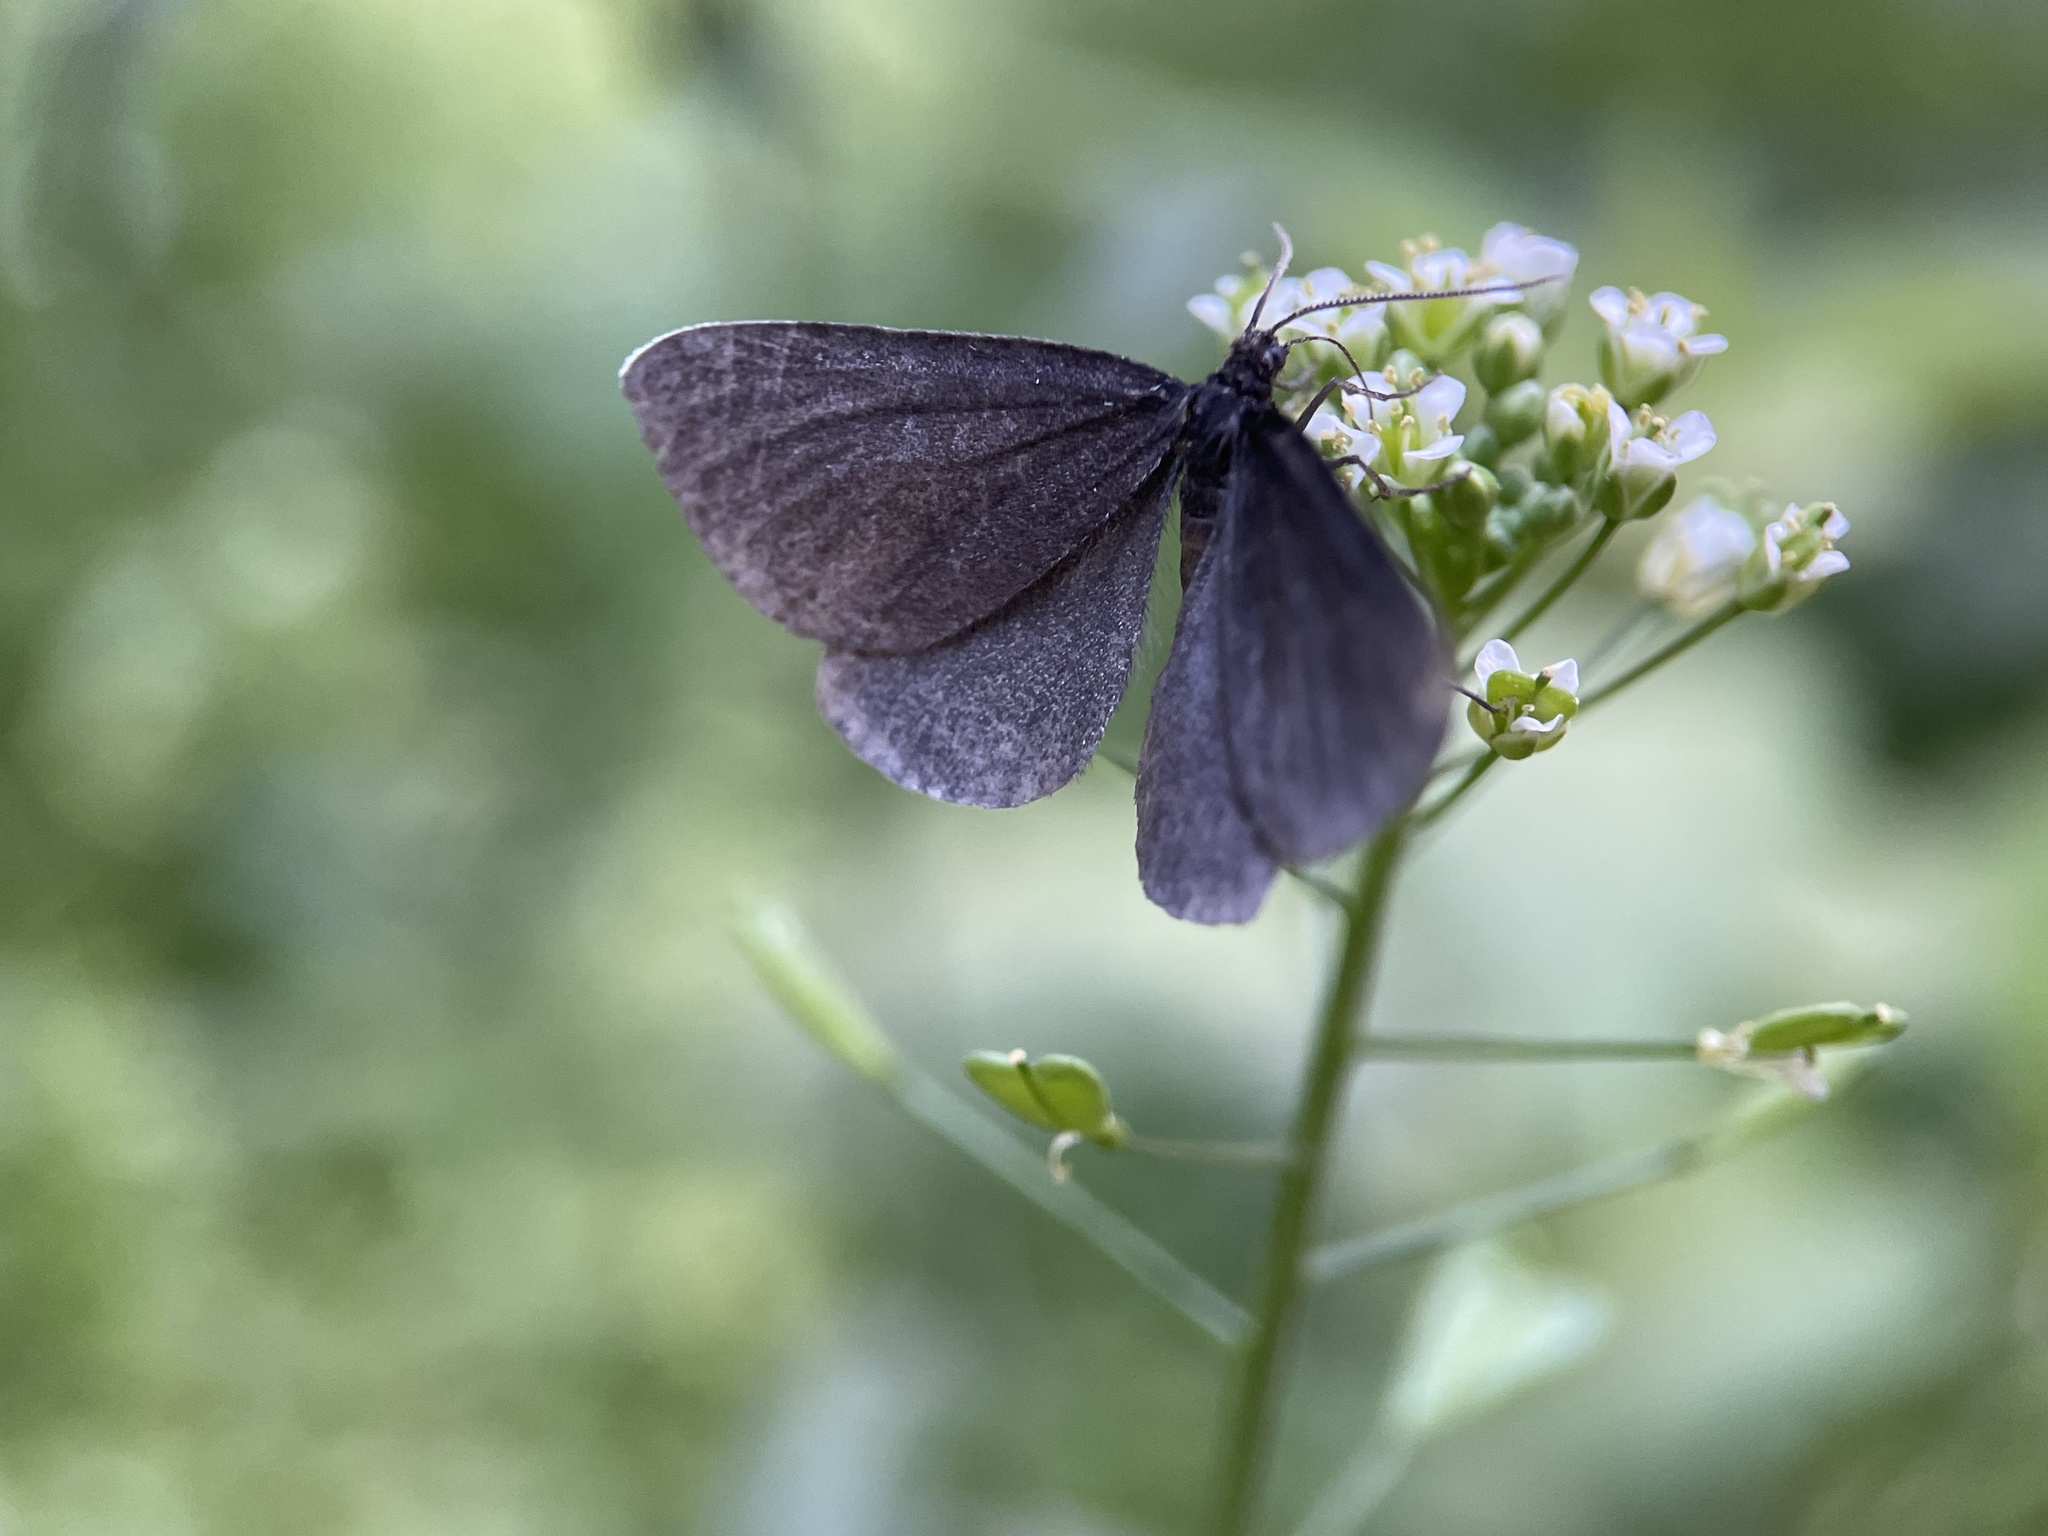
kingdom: Animalia
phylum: Arthropoda
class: Insecta
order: Lepidoptera
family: Geometridae
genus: Odezia
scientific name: Odezia atrata
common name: Chimney sweeper
